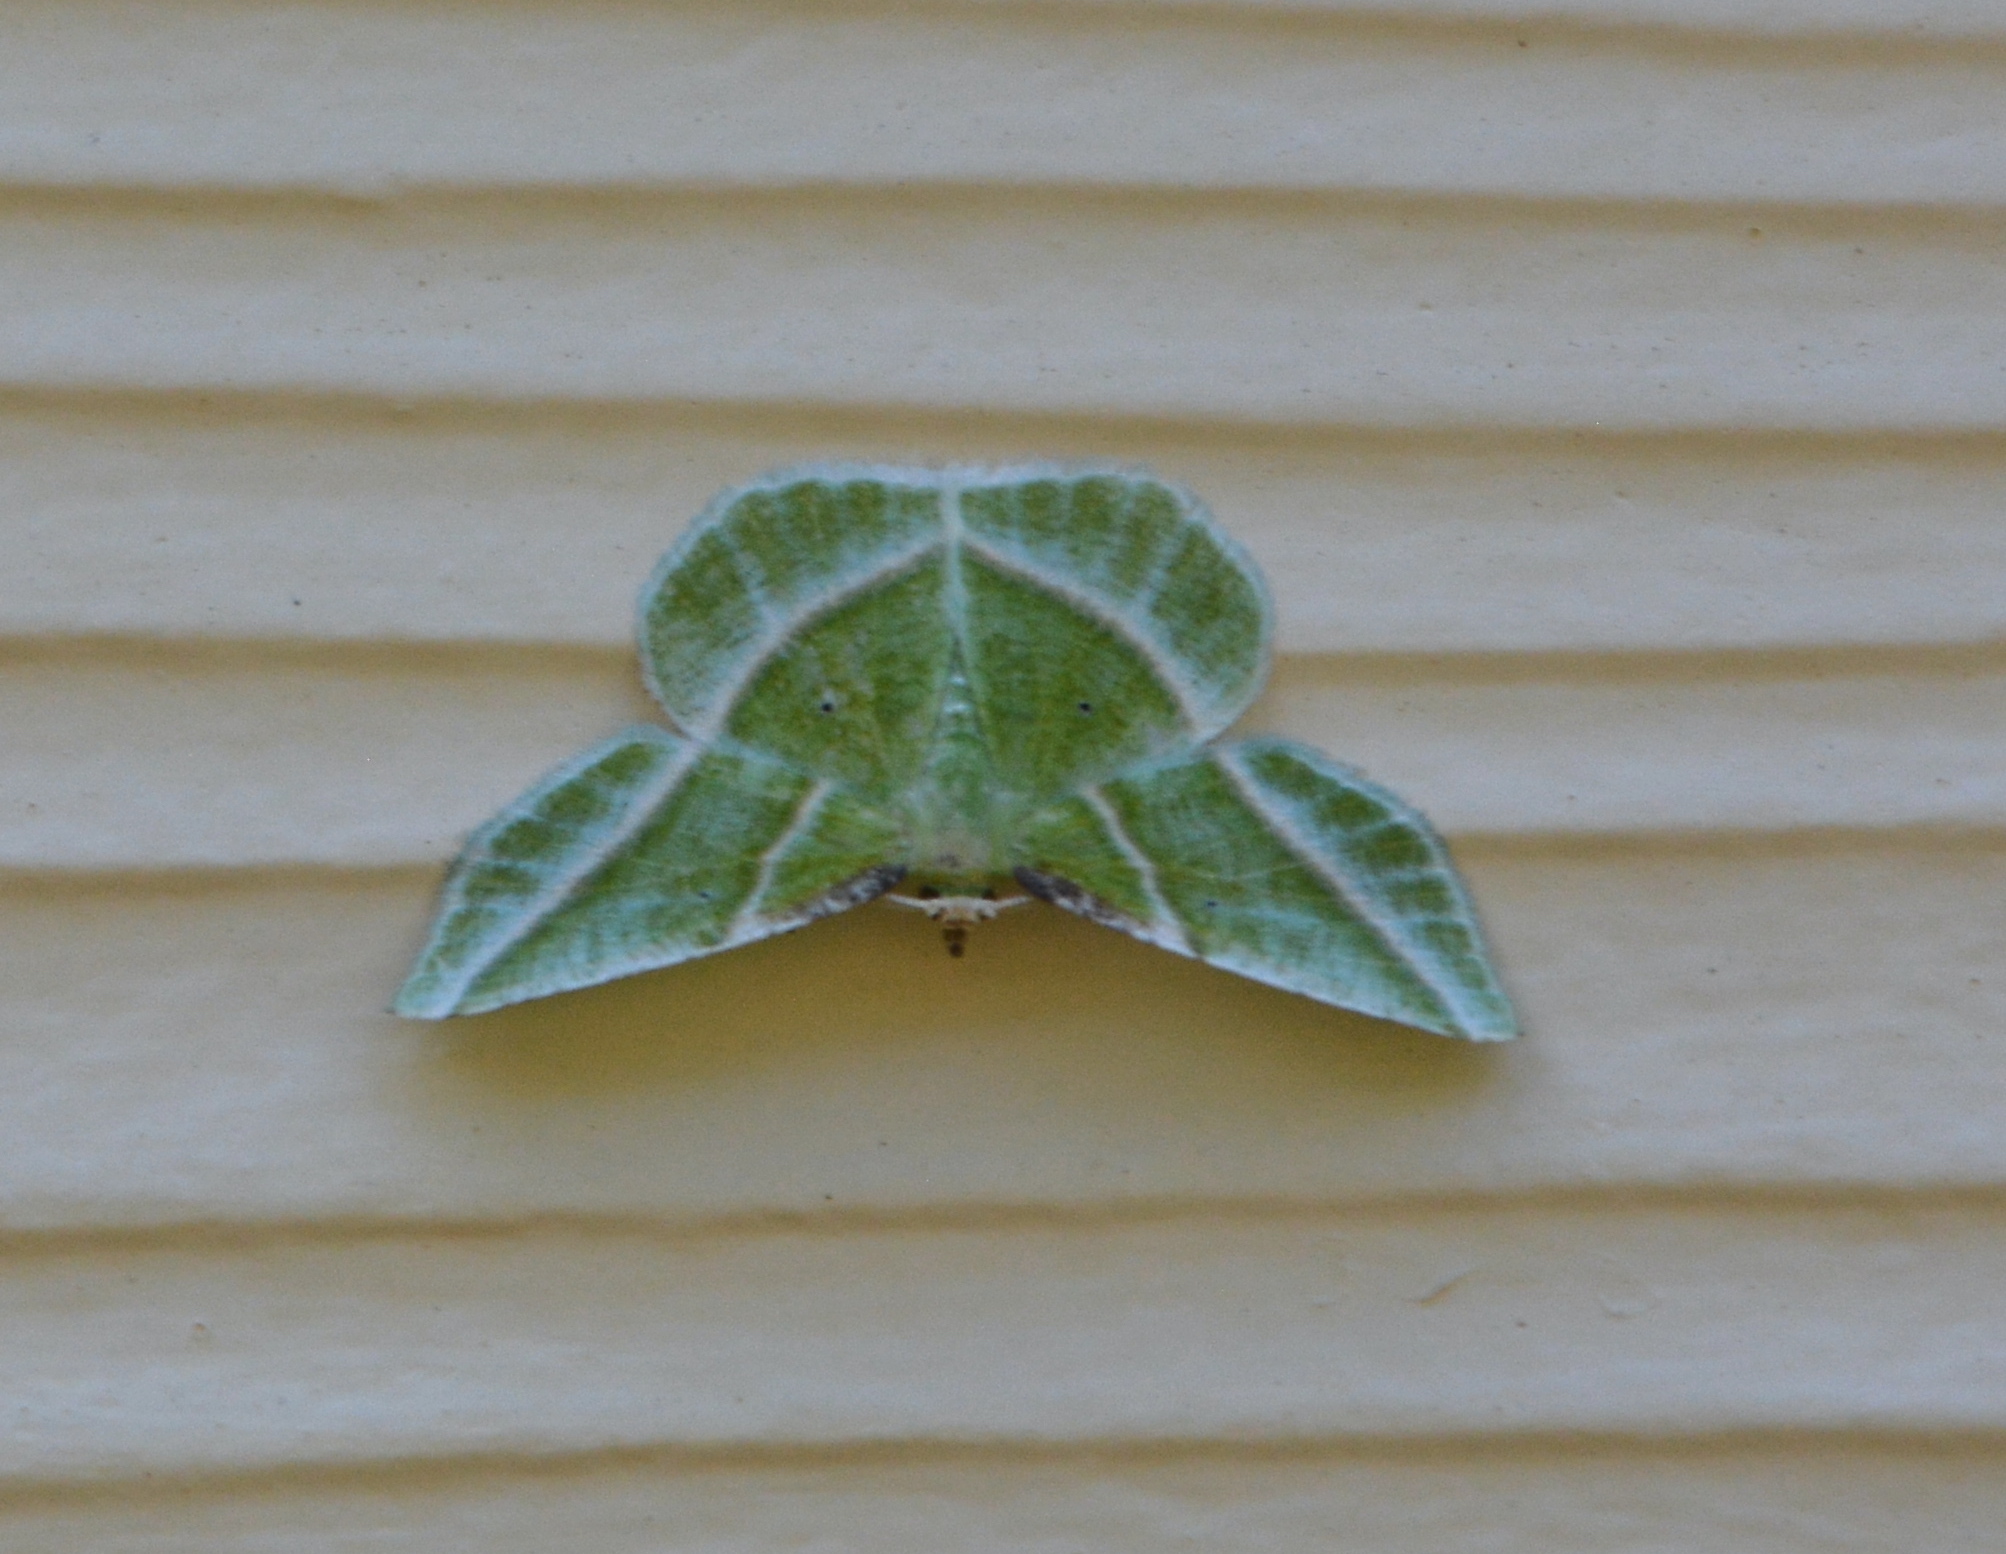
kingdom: Animalia
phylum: Arthropoda
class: Insecta
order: Lepidoptera
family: Geometridae
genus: Dichorda
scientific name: Dichorda iridaria
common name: Showy emerald
